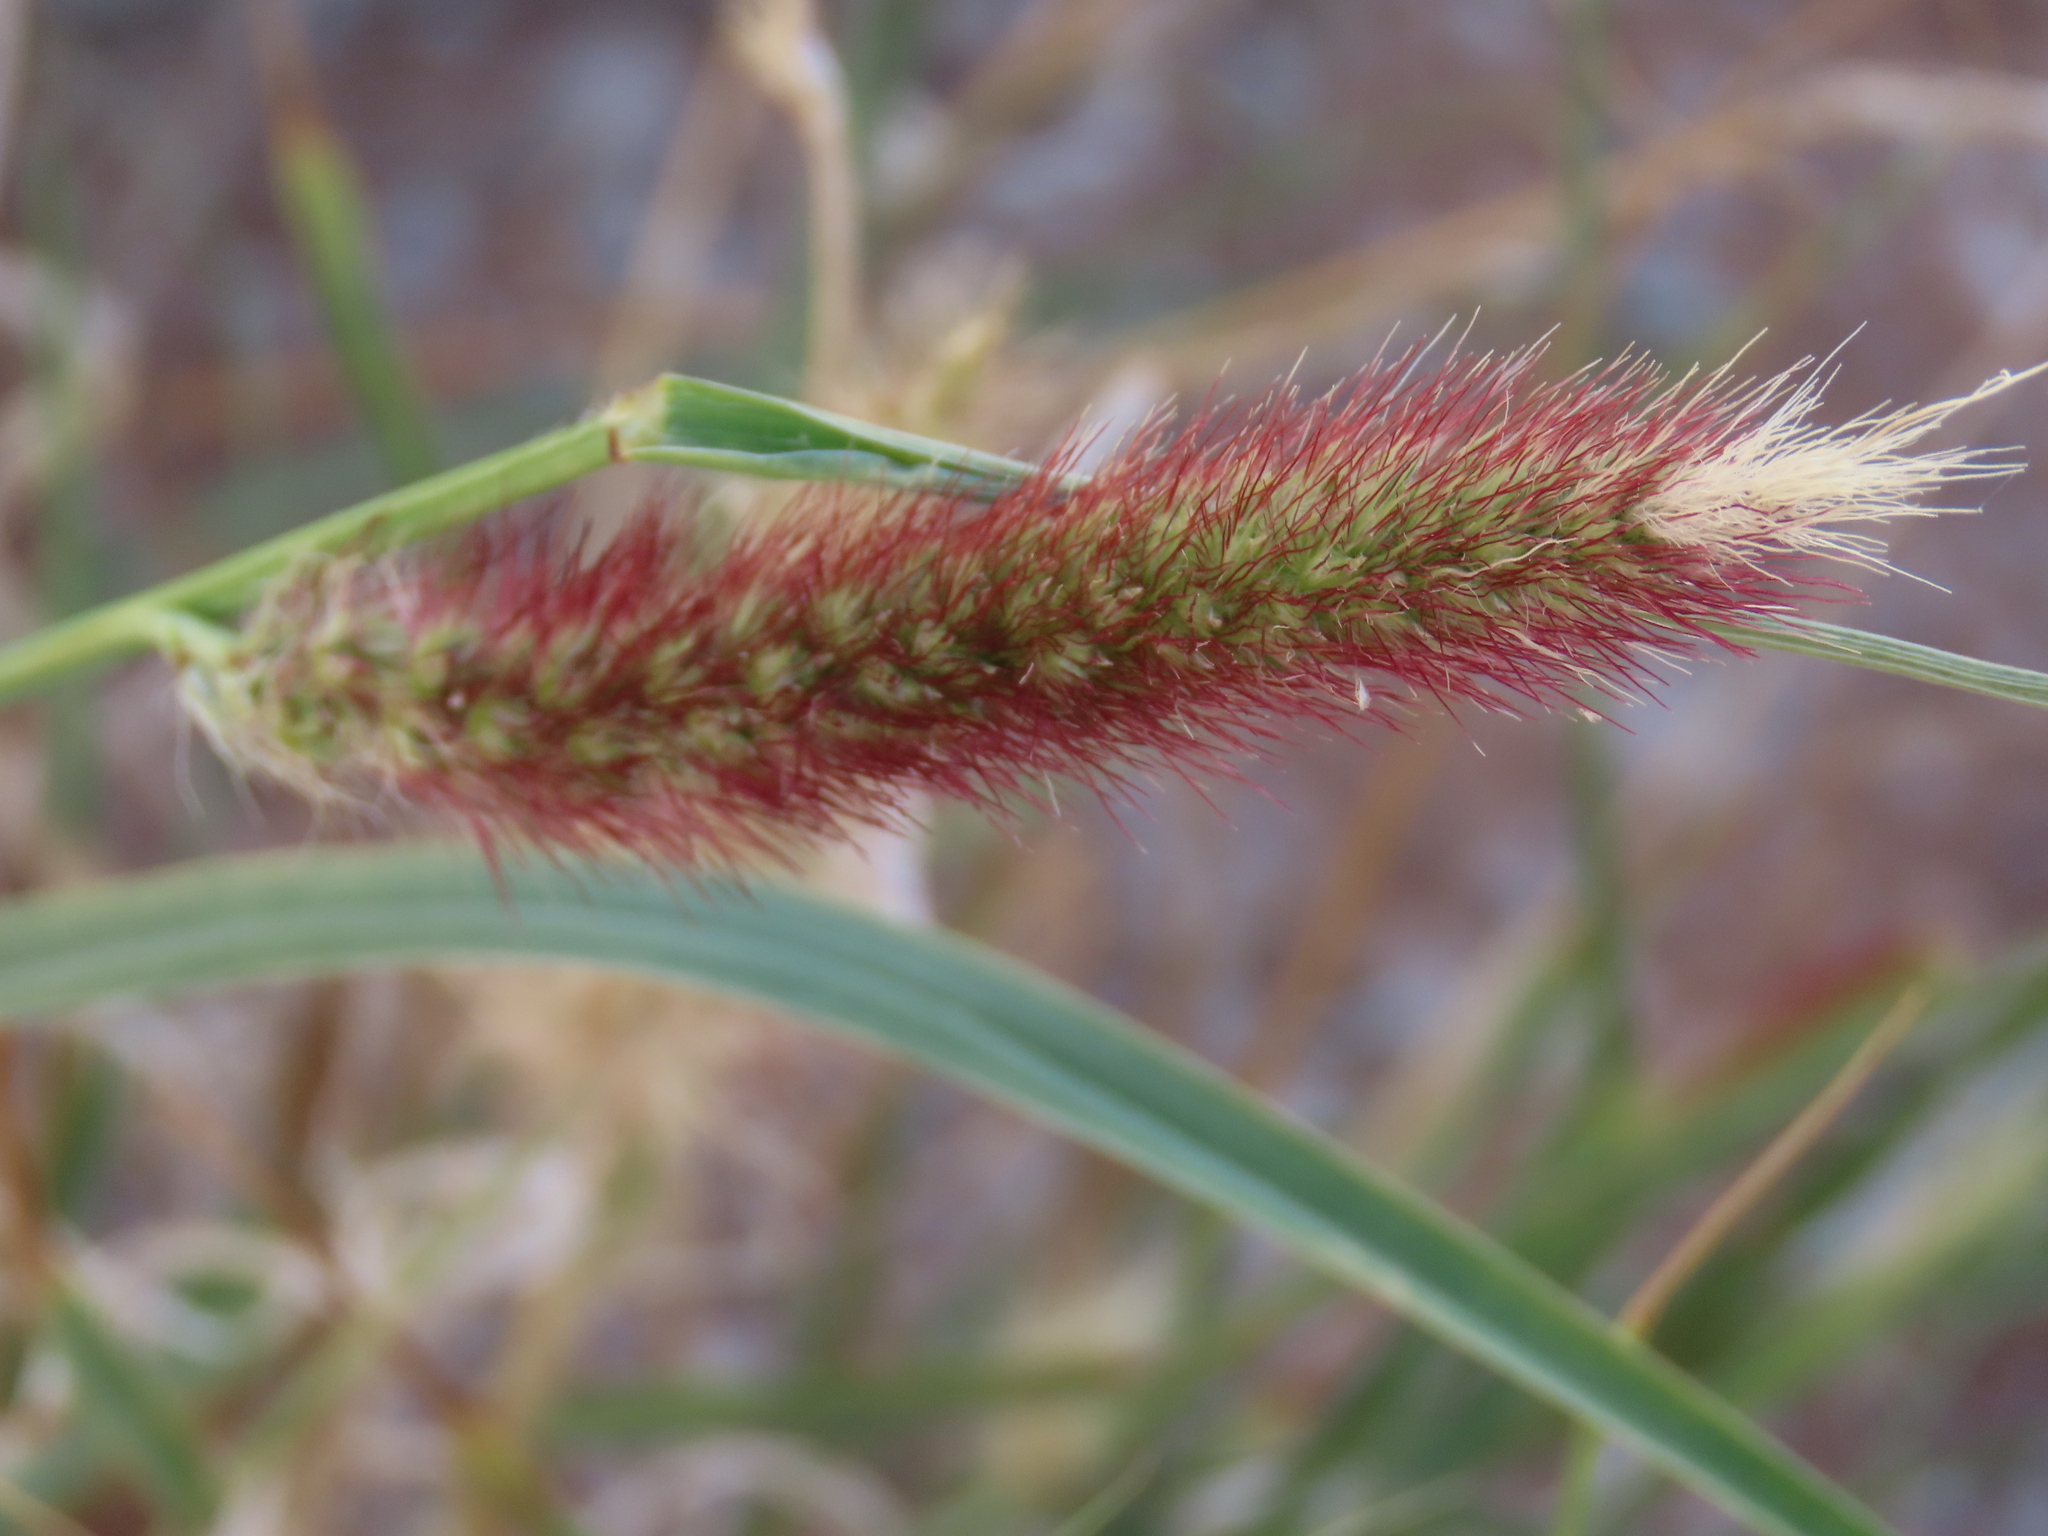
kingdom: Plantae
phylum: Tracheophyta
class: Liliopsida
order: Poales
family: Poaceae
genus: Cenchrus
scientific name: Cenchrus ciliaris
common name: Buffelgrass
